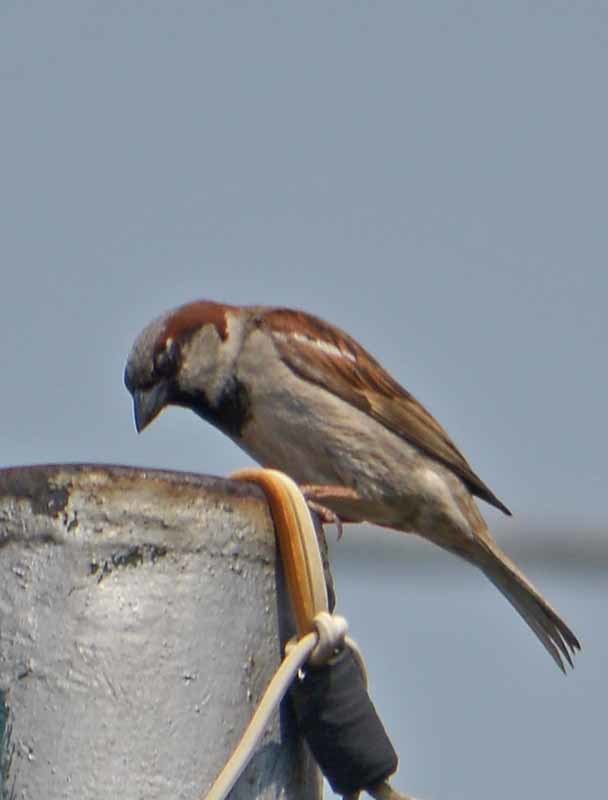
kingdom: Animalia
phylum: Chordata
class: Aves
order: Passeriformes
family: Passeridae
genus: Passer
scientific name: Passer domesticus
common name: House sparrow
